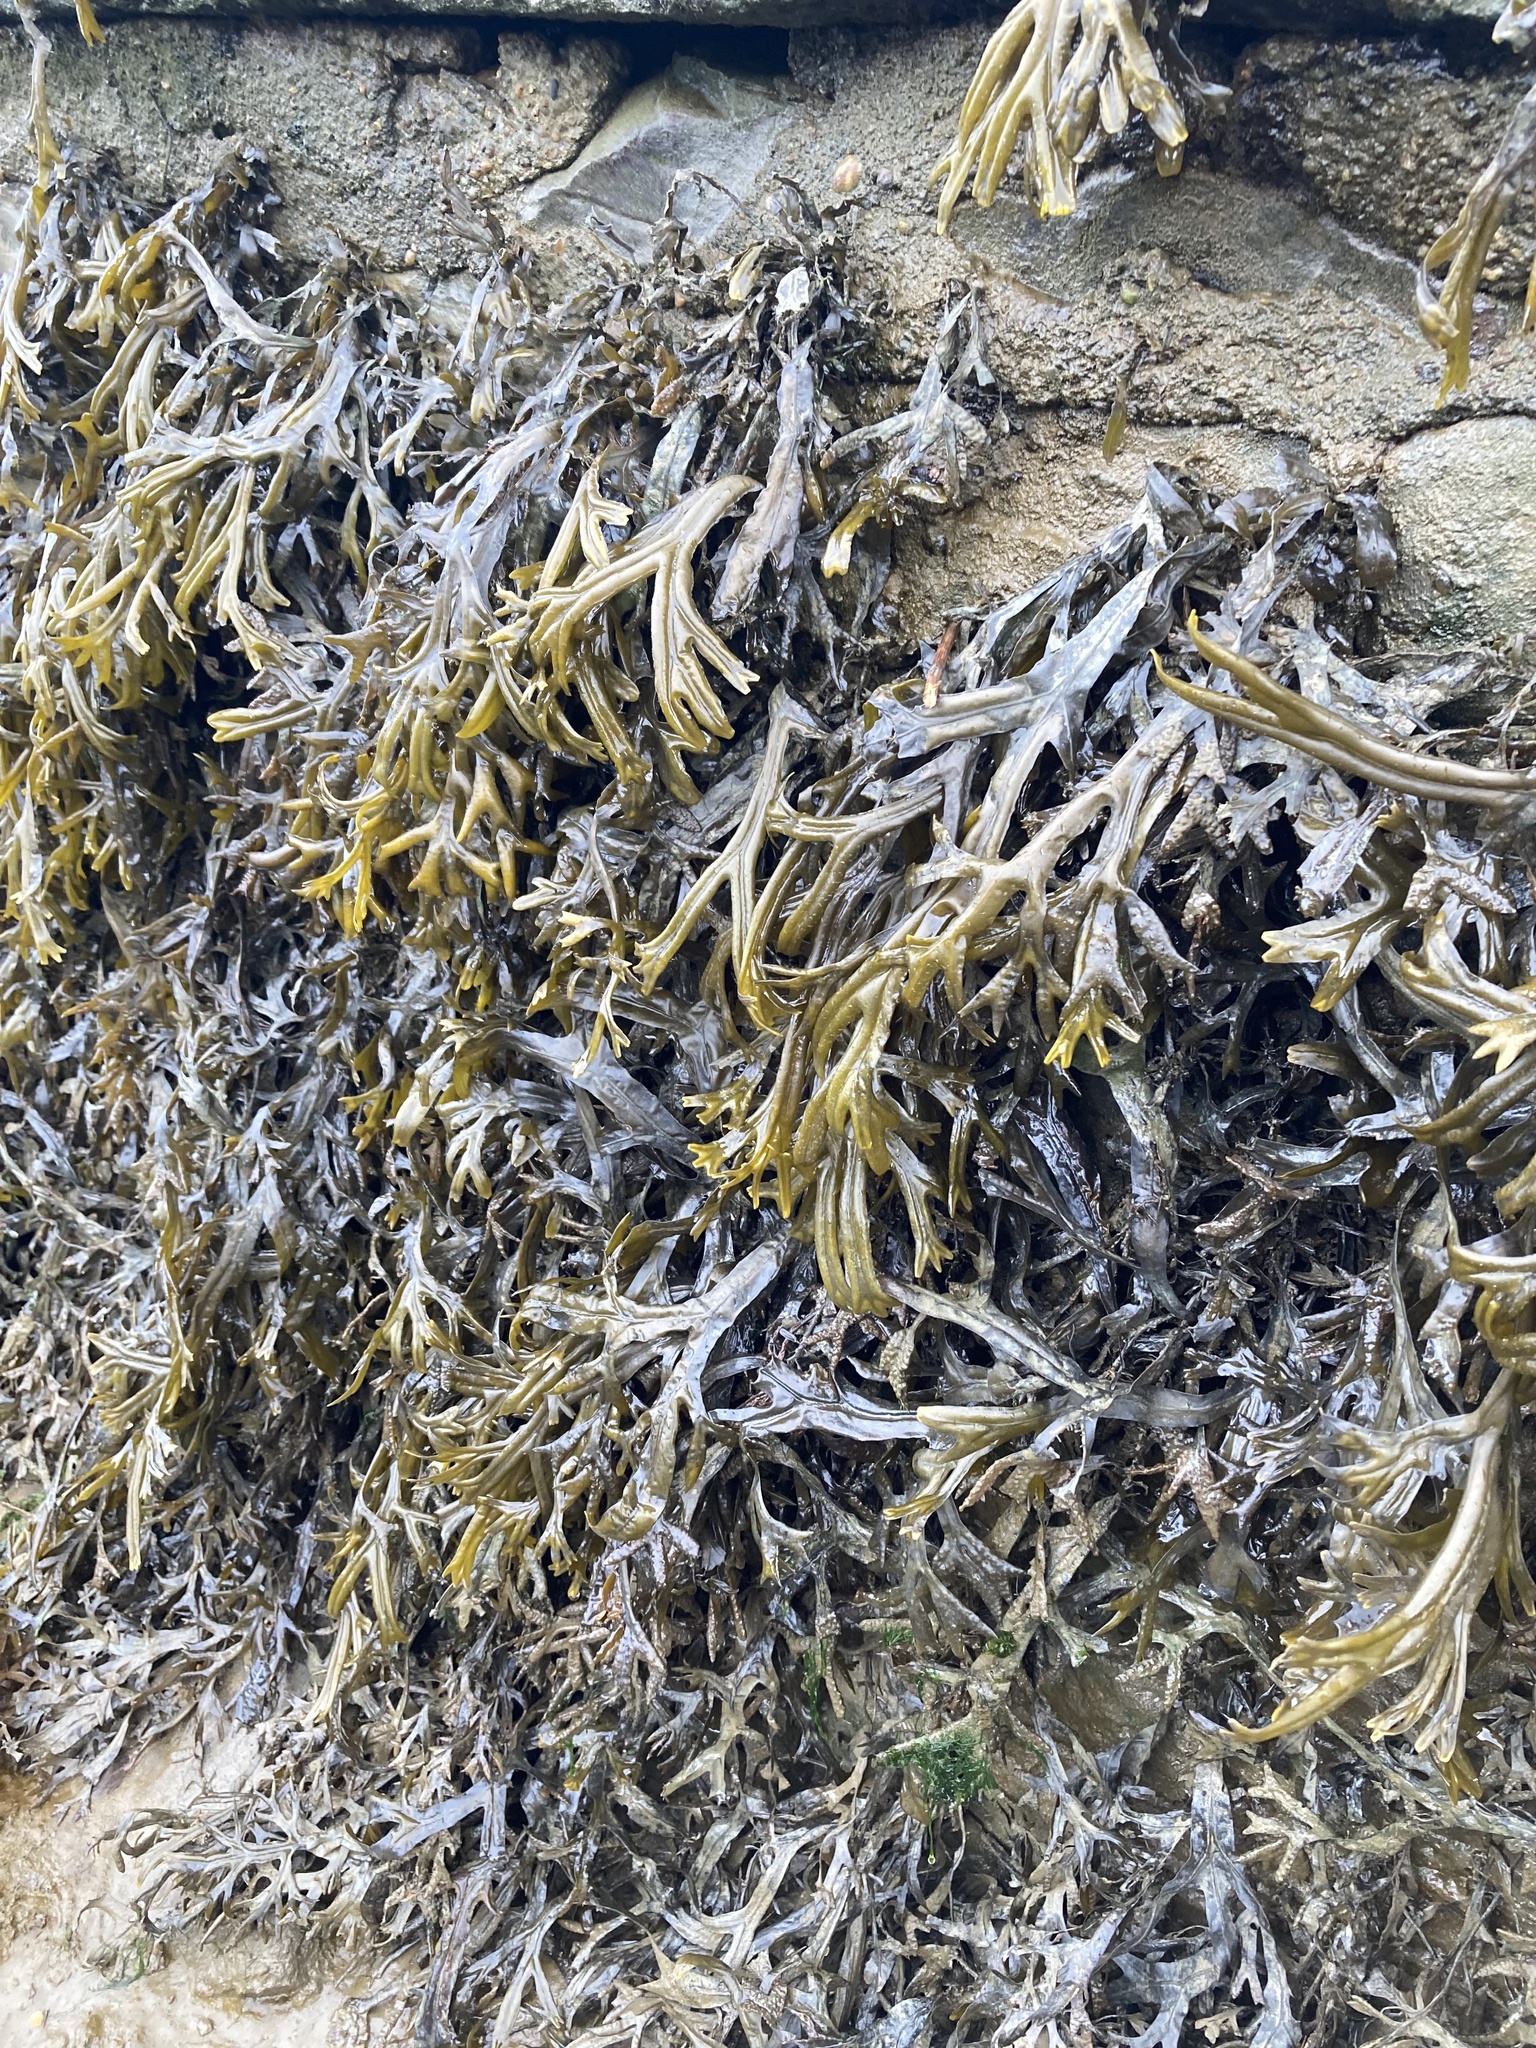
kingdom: Chromista
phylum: Ochrophyta
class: Phaeophyceae
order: Fucales
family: Fucaceae
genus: Fucus
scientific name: Fucus ceranoides
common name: Horned wrack
